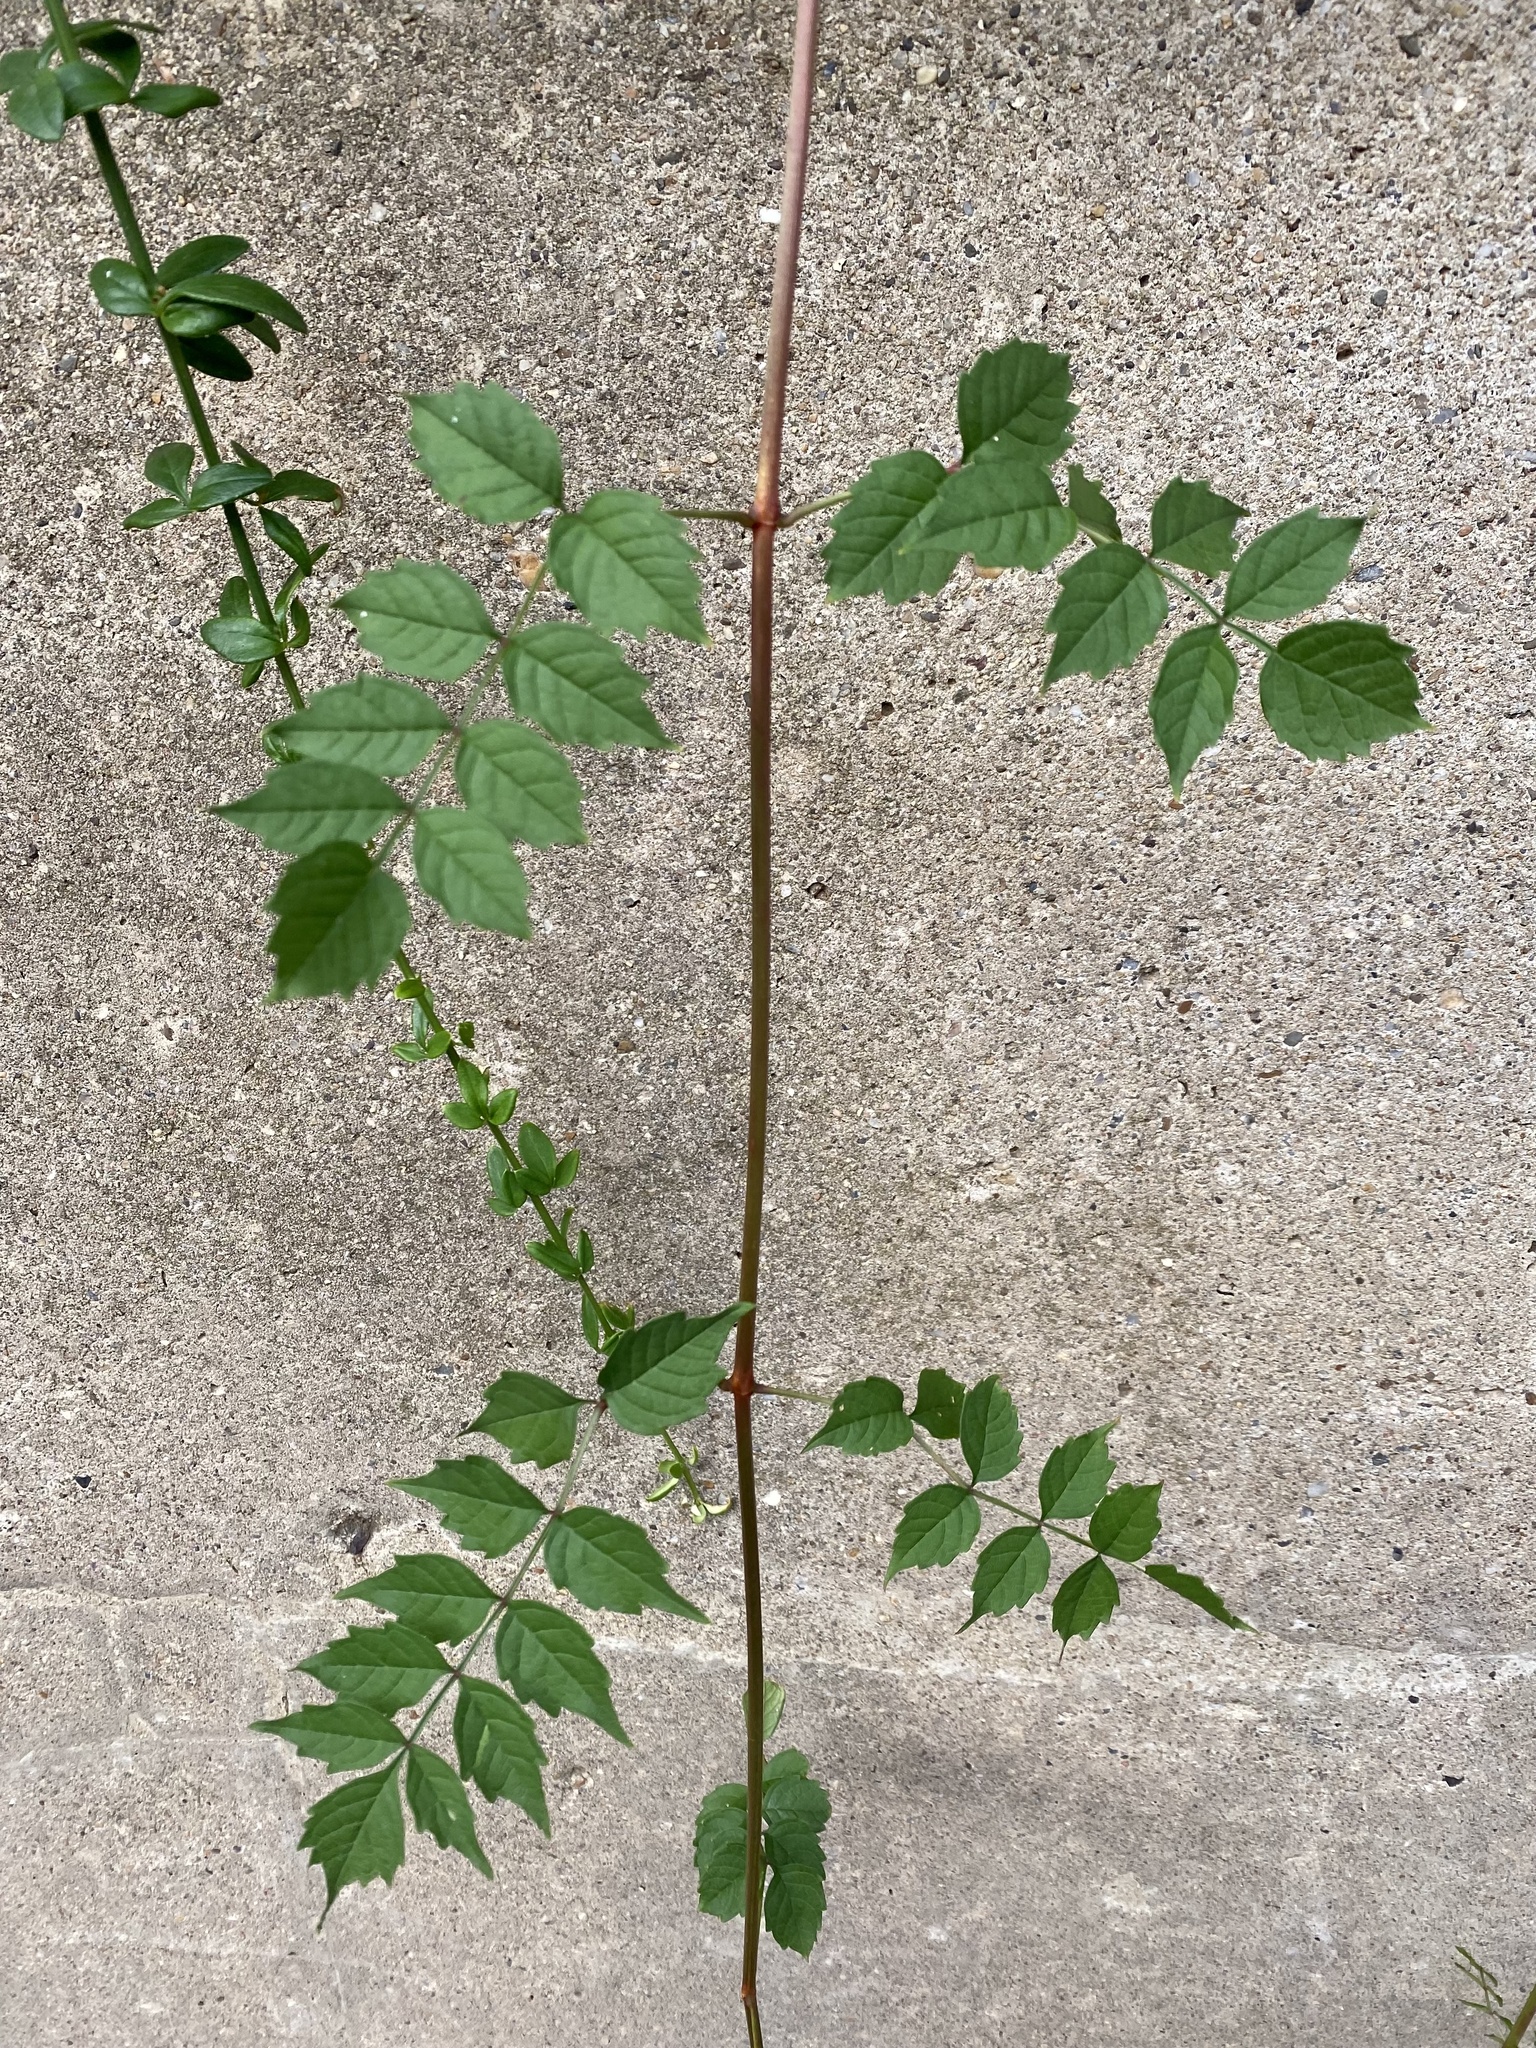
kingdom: Plantae
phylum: Tracheophyta
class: Magnoliopsida
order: Lamiales
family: Bignoniaceae
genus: Campsis
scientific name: Campsis radicans
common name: Trumpet-creeper
